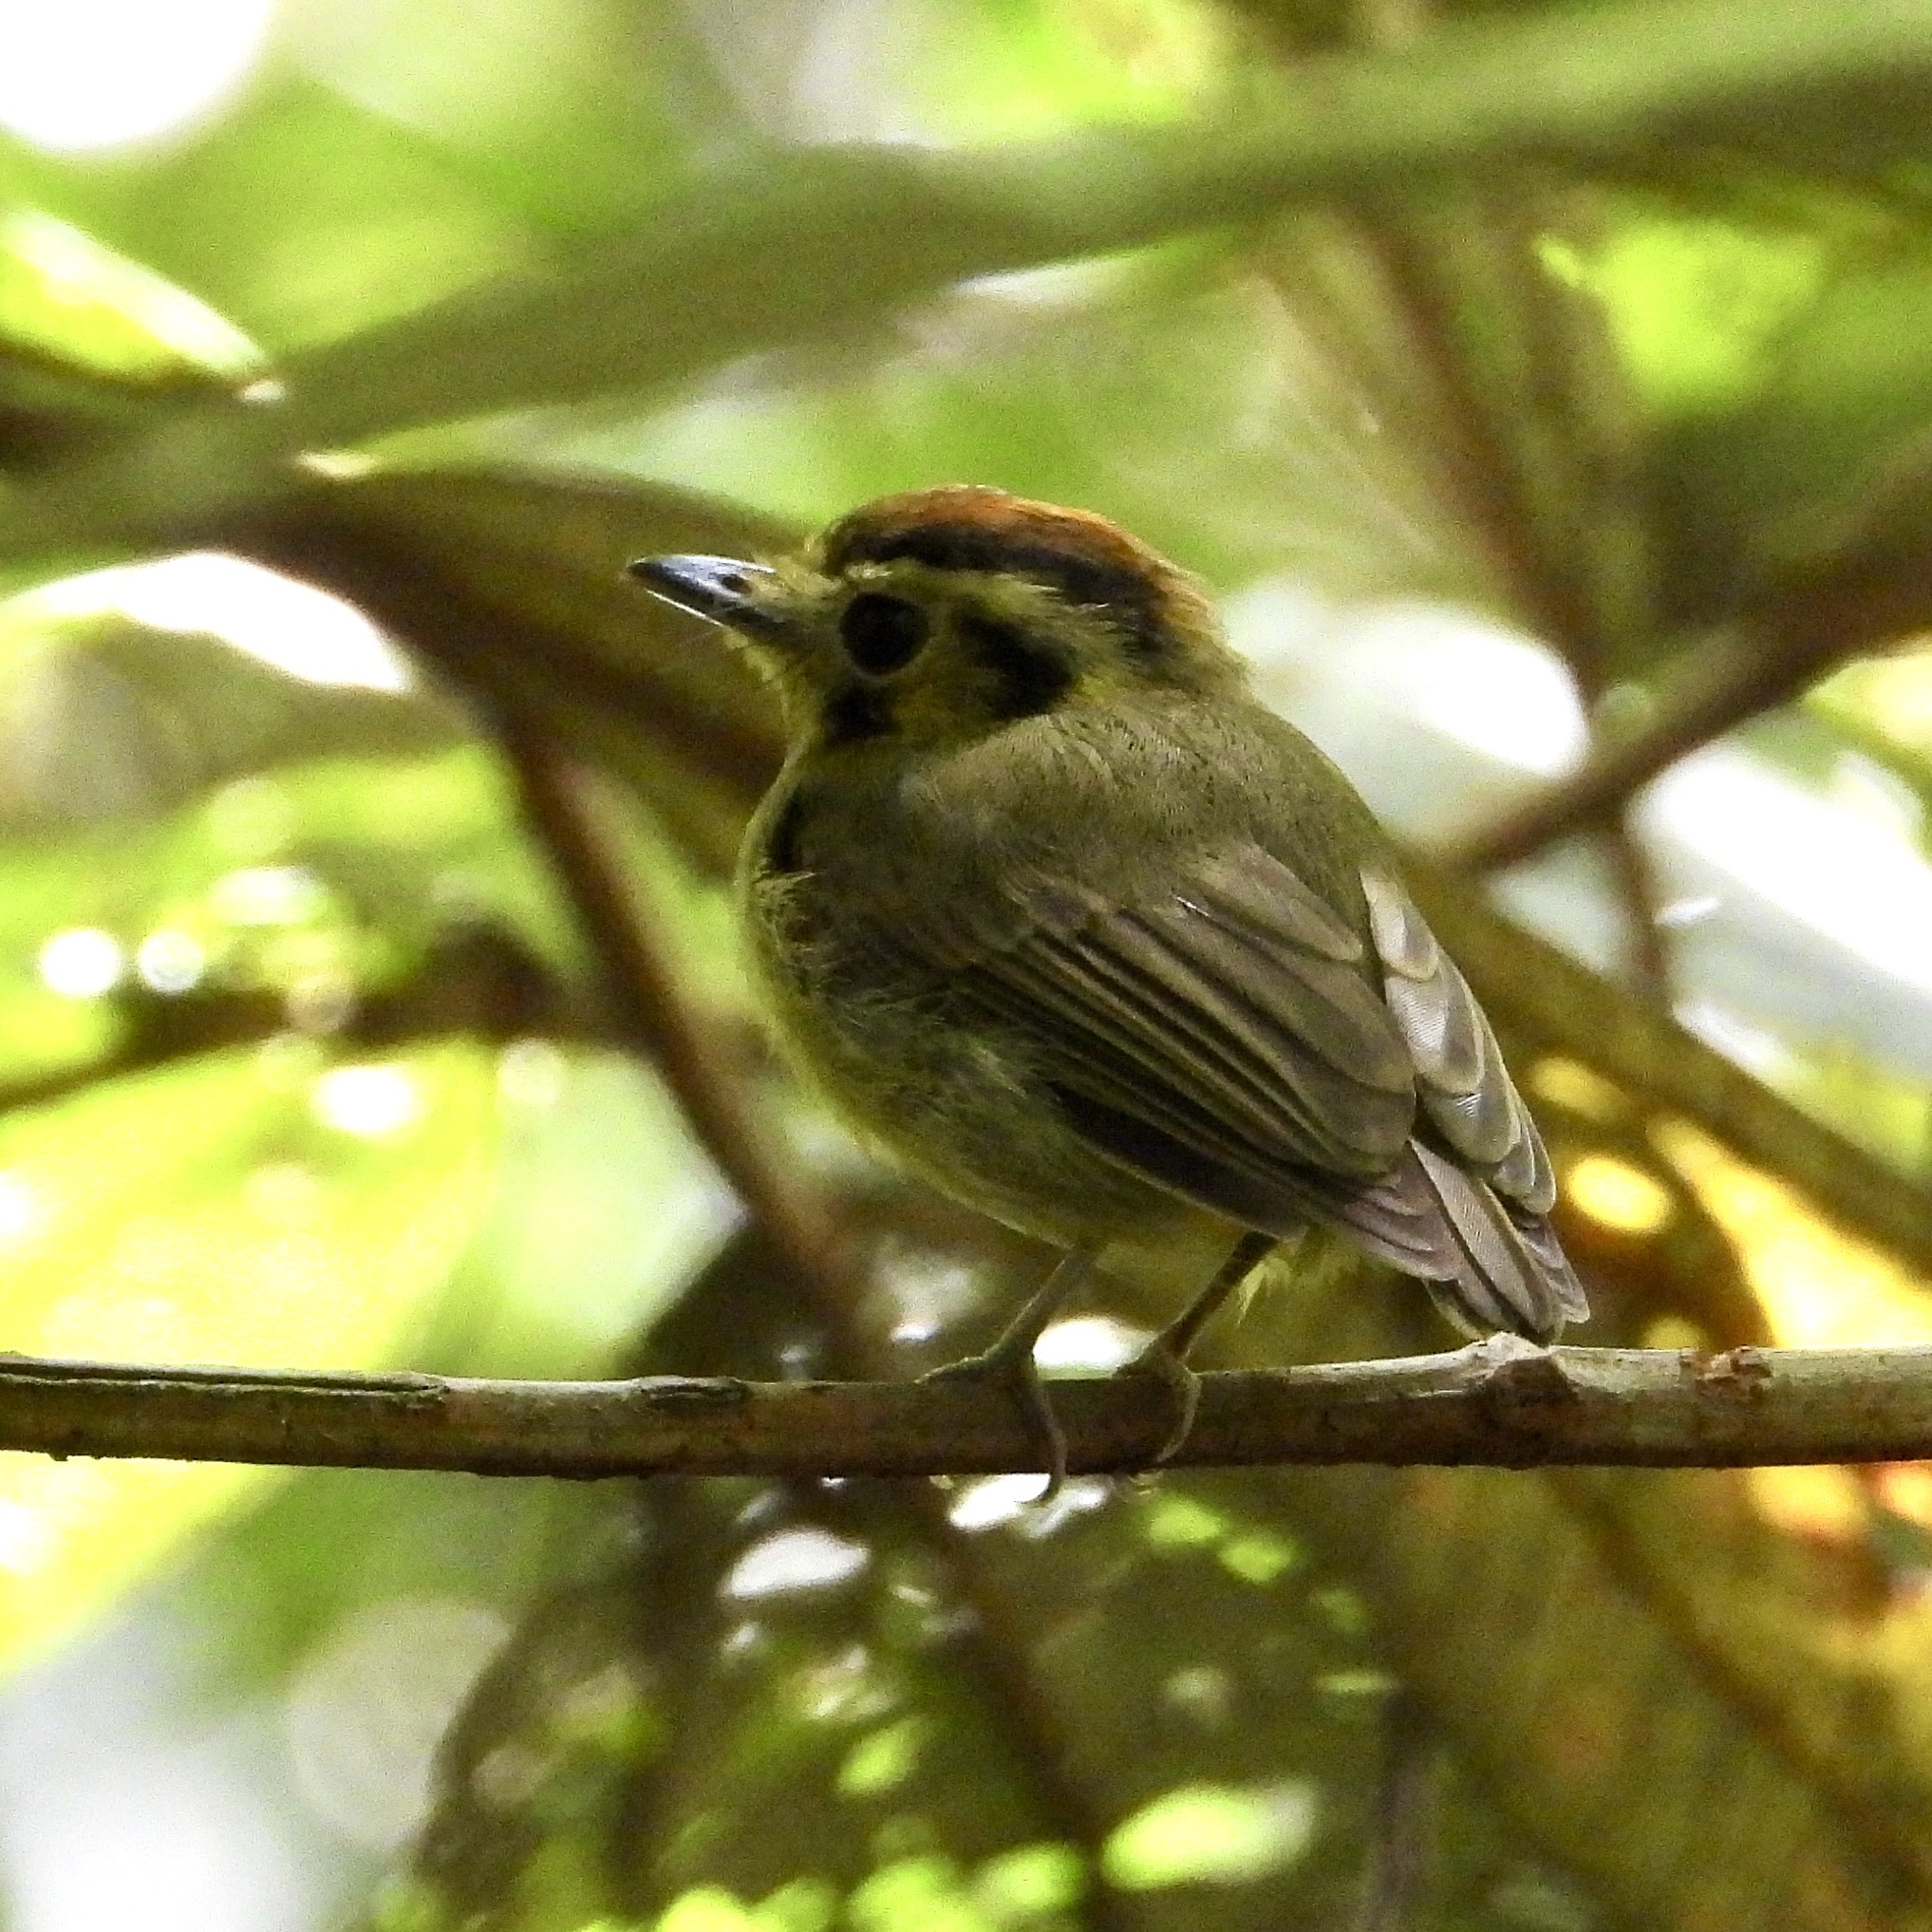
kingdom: Animalia
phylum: Chordata
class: Aves
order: Passeriformes
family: Tyrannidae
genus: Platyrinchus
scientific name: Platyrinchus coronatus
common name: Golden-crowned spadebill
